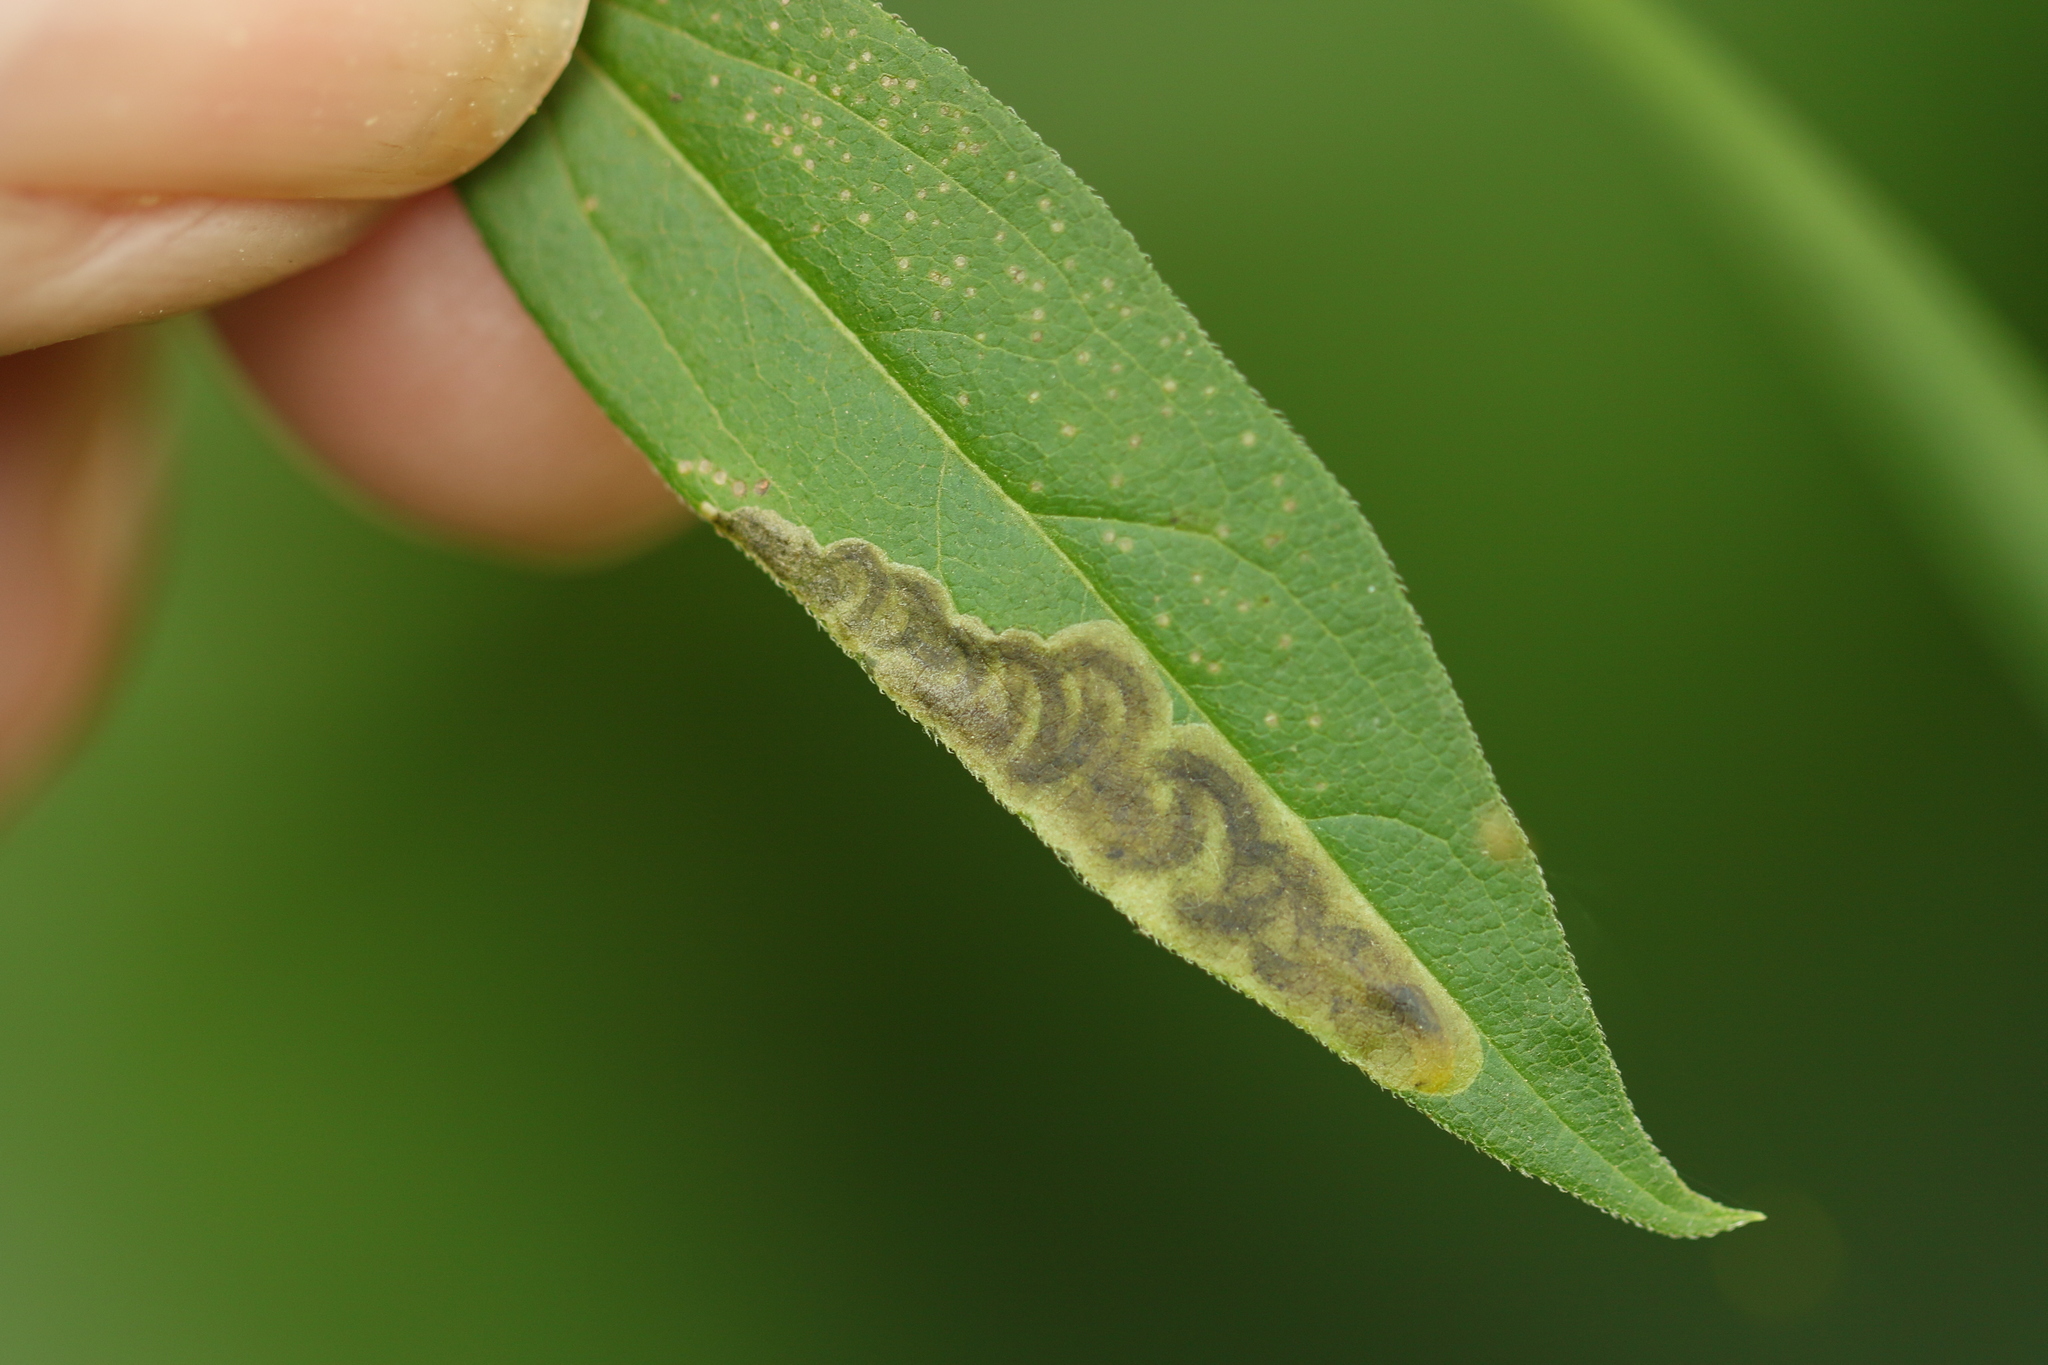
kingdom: Animalia
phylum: Arthropoda
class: Insecta
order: Diptera
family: Agromyzidae
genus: Nemorimyza
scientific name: Nemorimyza posticata
